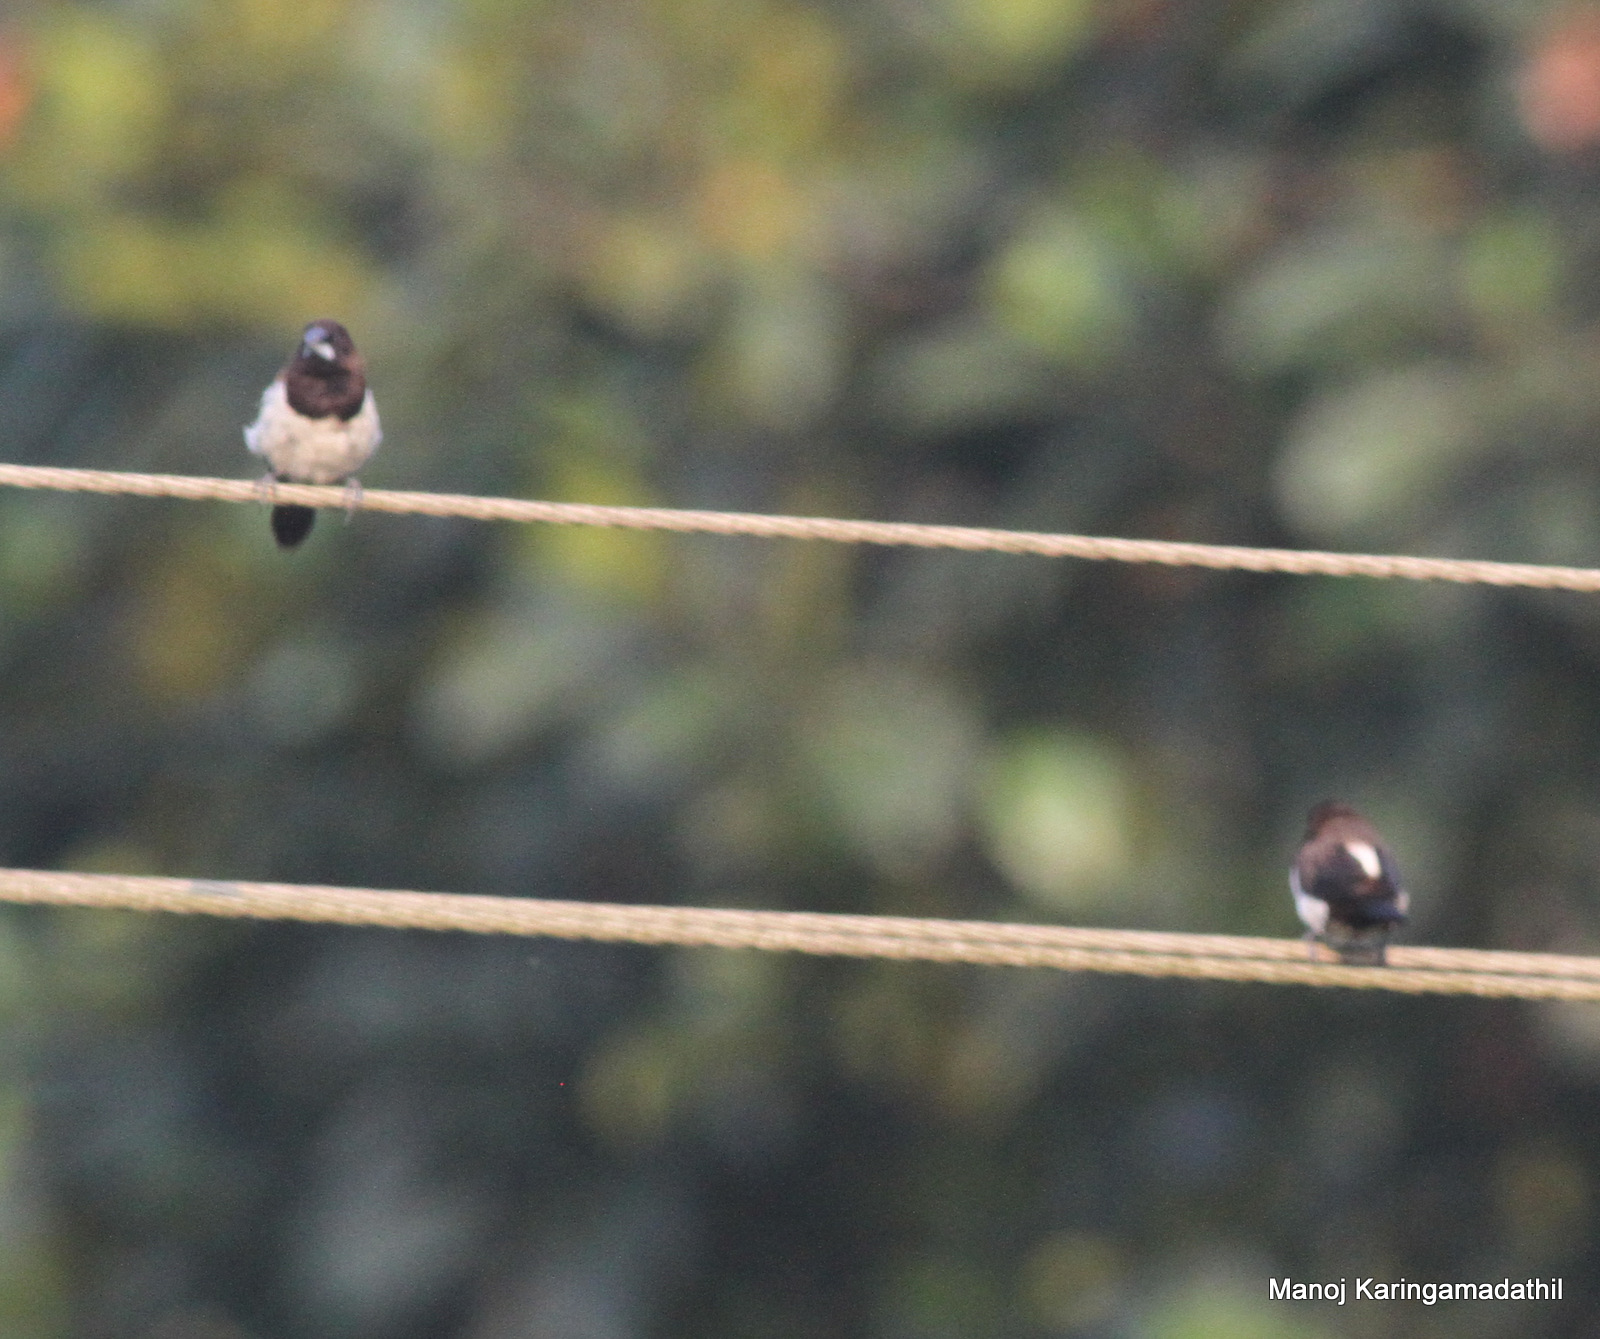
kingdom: Animalia
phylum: Chordata
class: Aves
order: Passeriformes
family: Estrildidae
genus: Lonchura
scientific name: Lonchura striata
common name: White-rumped munia
